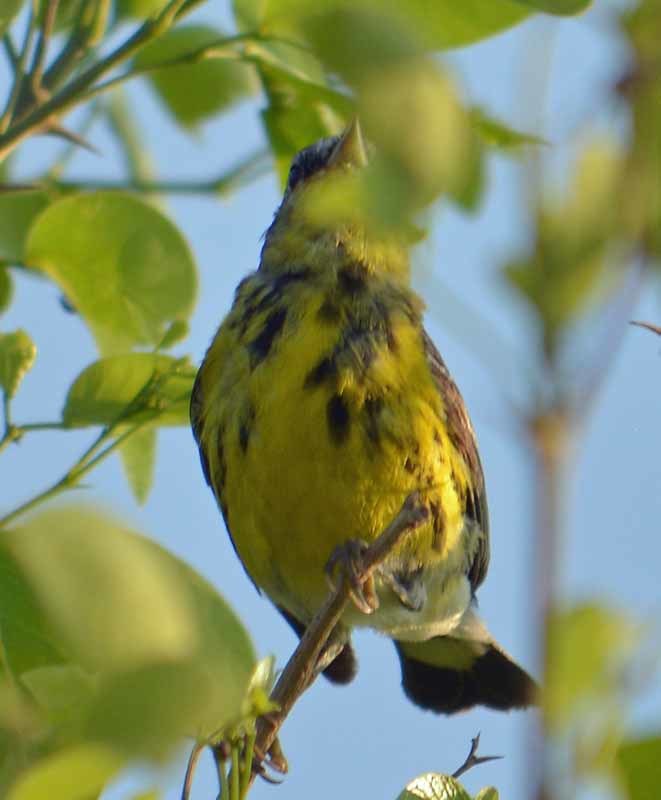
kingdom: Animalia
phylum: Chordata
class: Aves
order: Passeriformes
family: Parulidae
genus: Setophaga
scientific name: Setophaga magnolia
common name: Magnolia warbler
